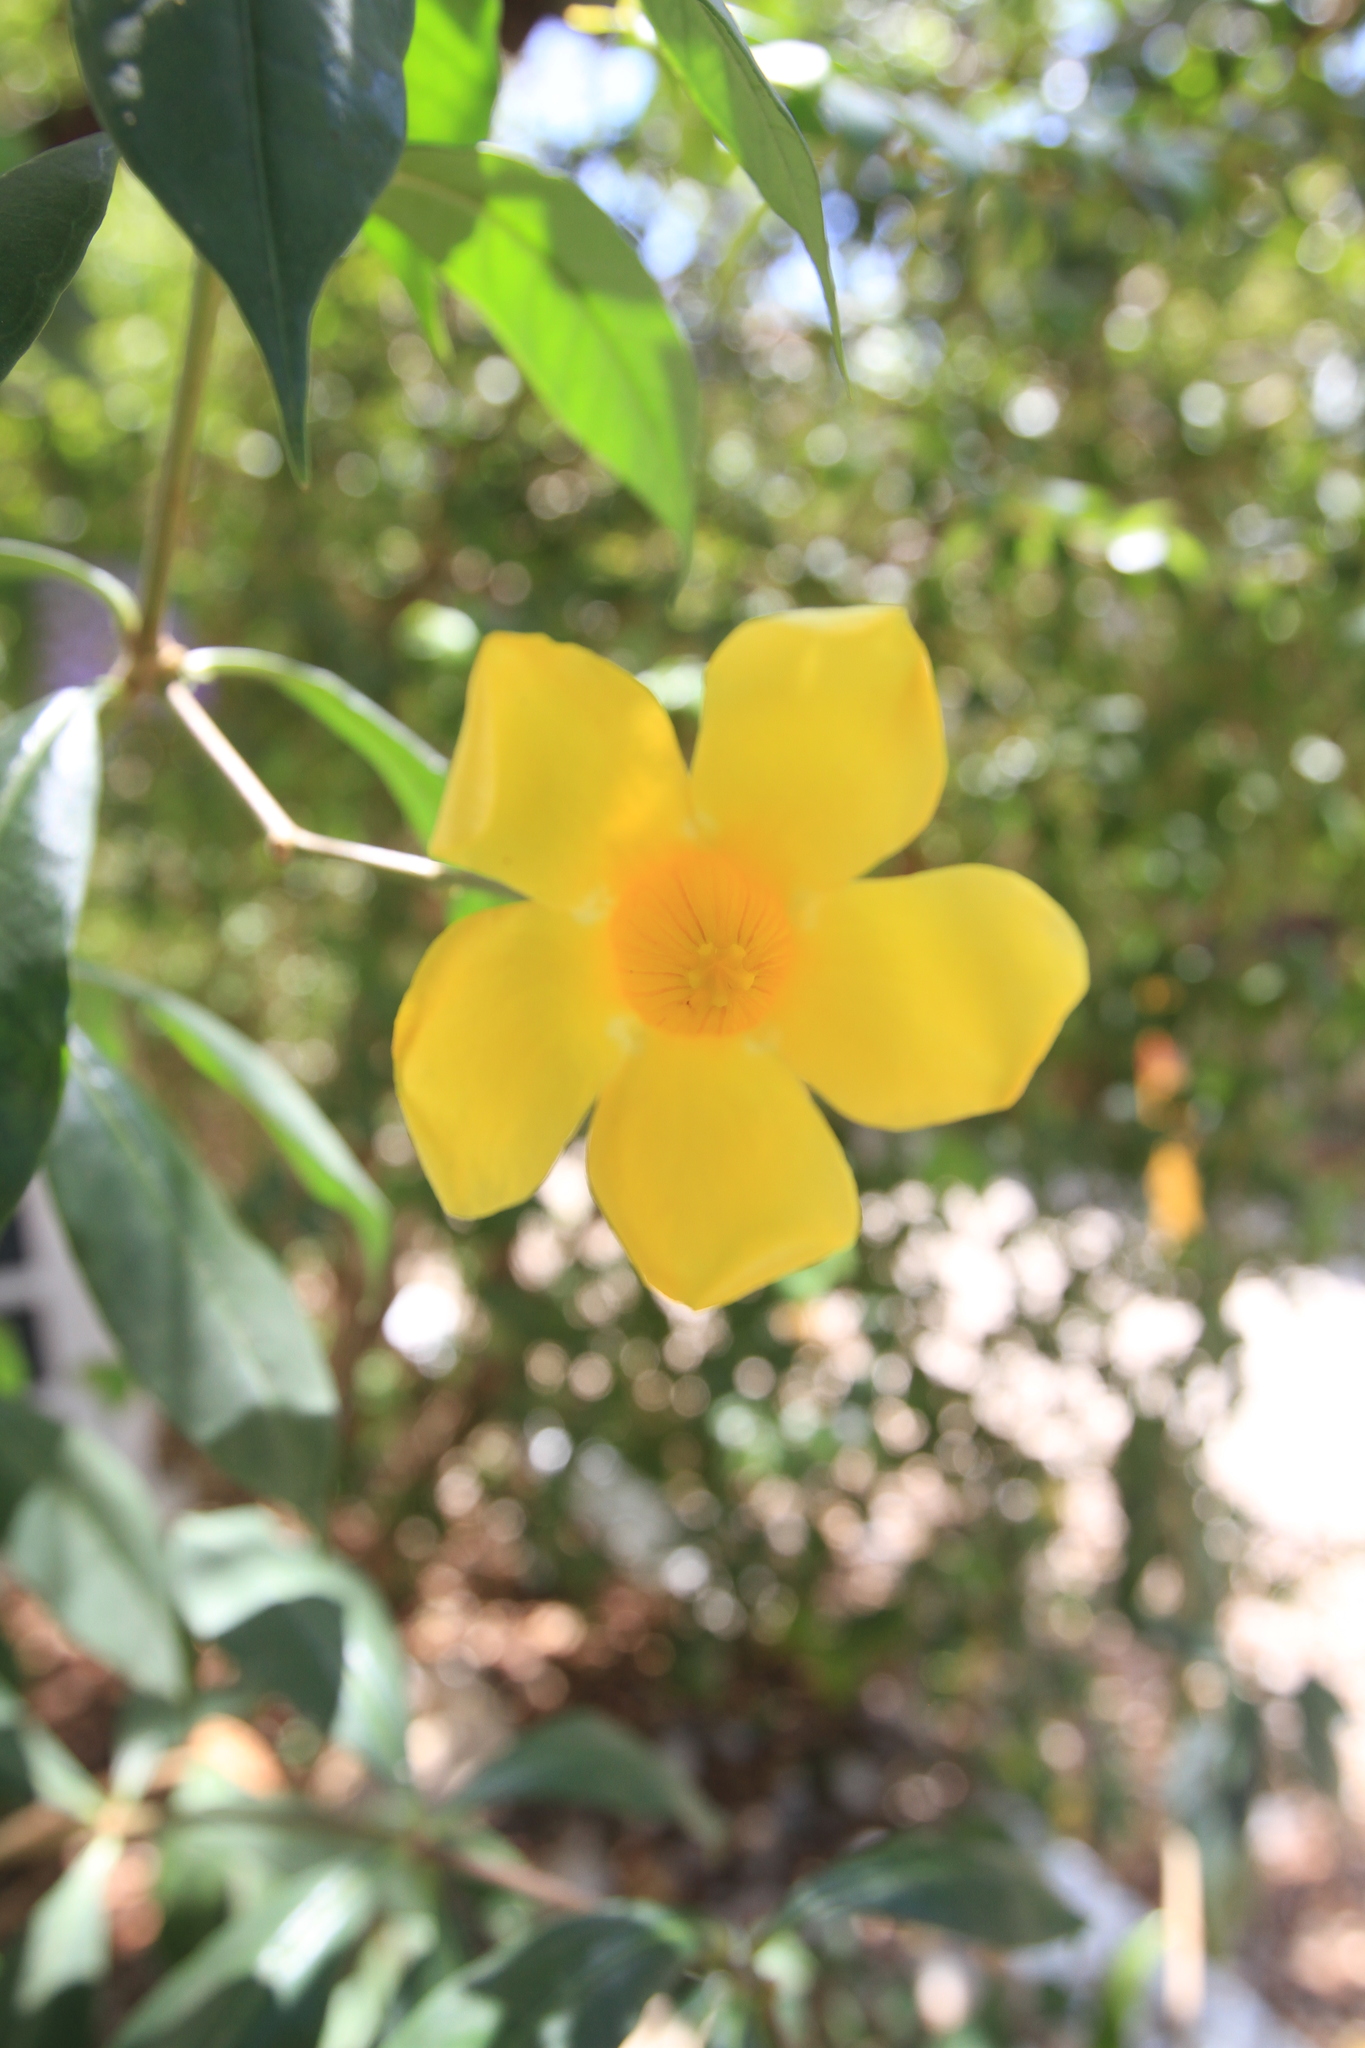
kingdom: Plantae
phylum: Tracheophyta
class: Magnoliopsida
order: Gentianales
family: Apocynaceae
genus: Allamanda
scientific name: Allamanda cathartica
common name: Golden trumpet
